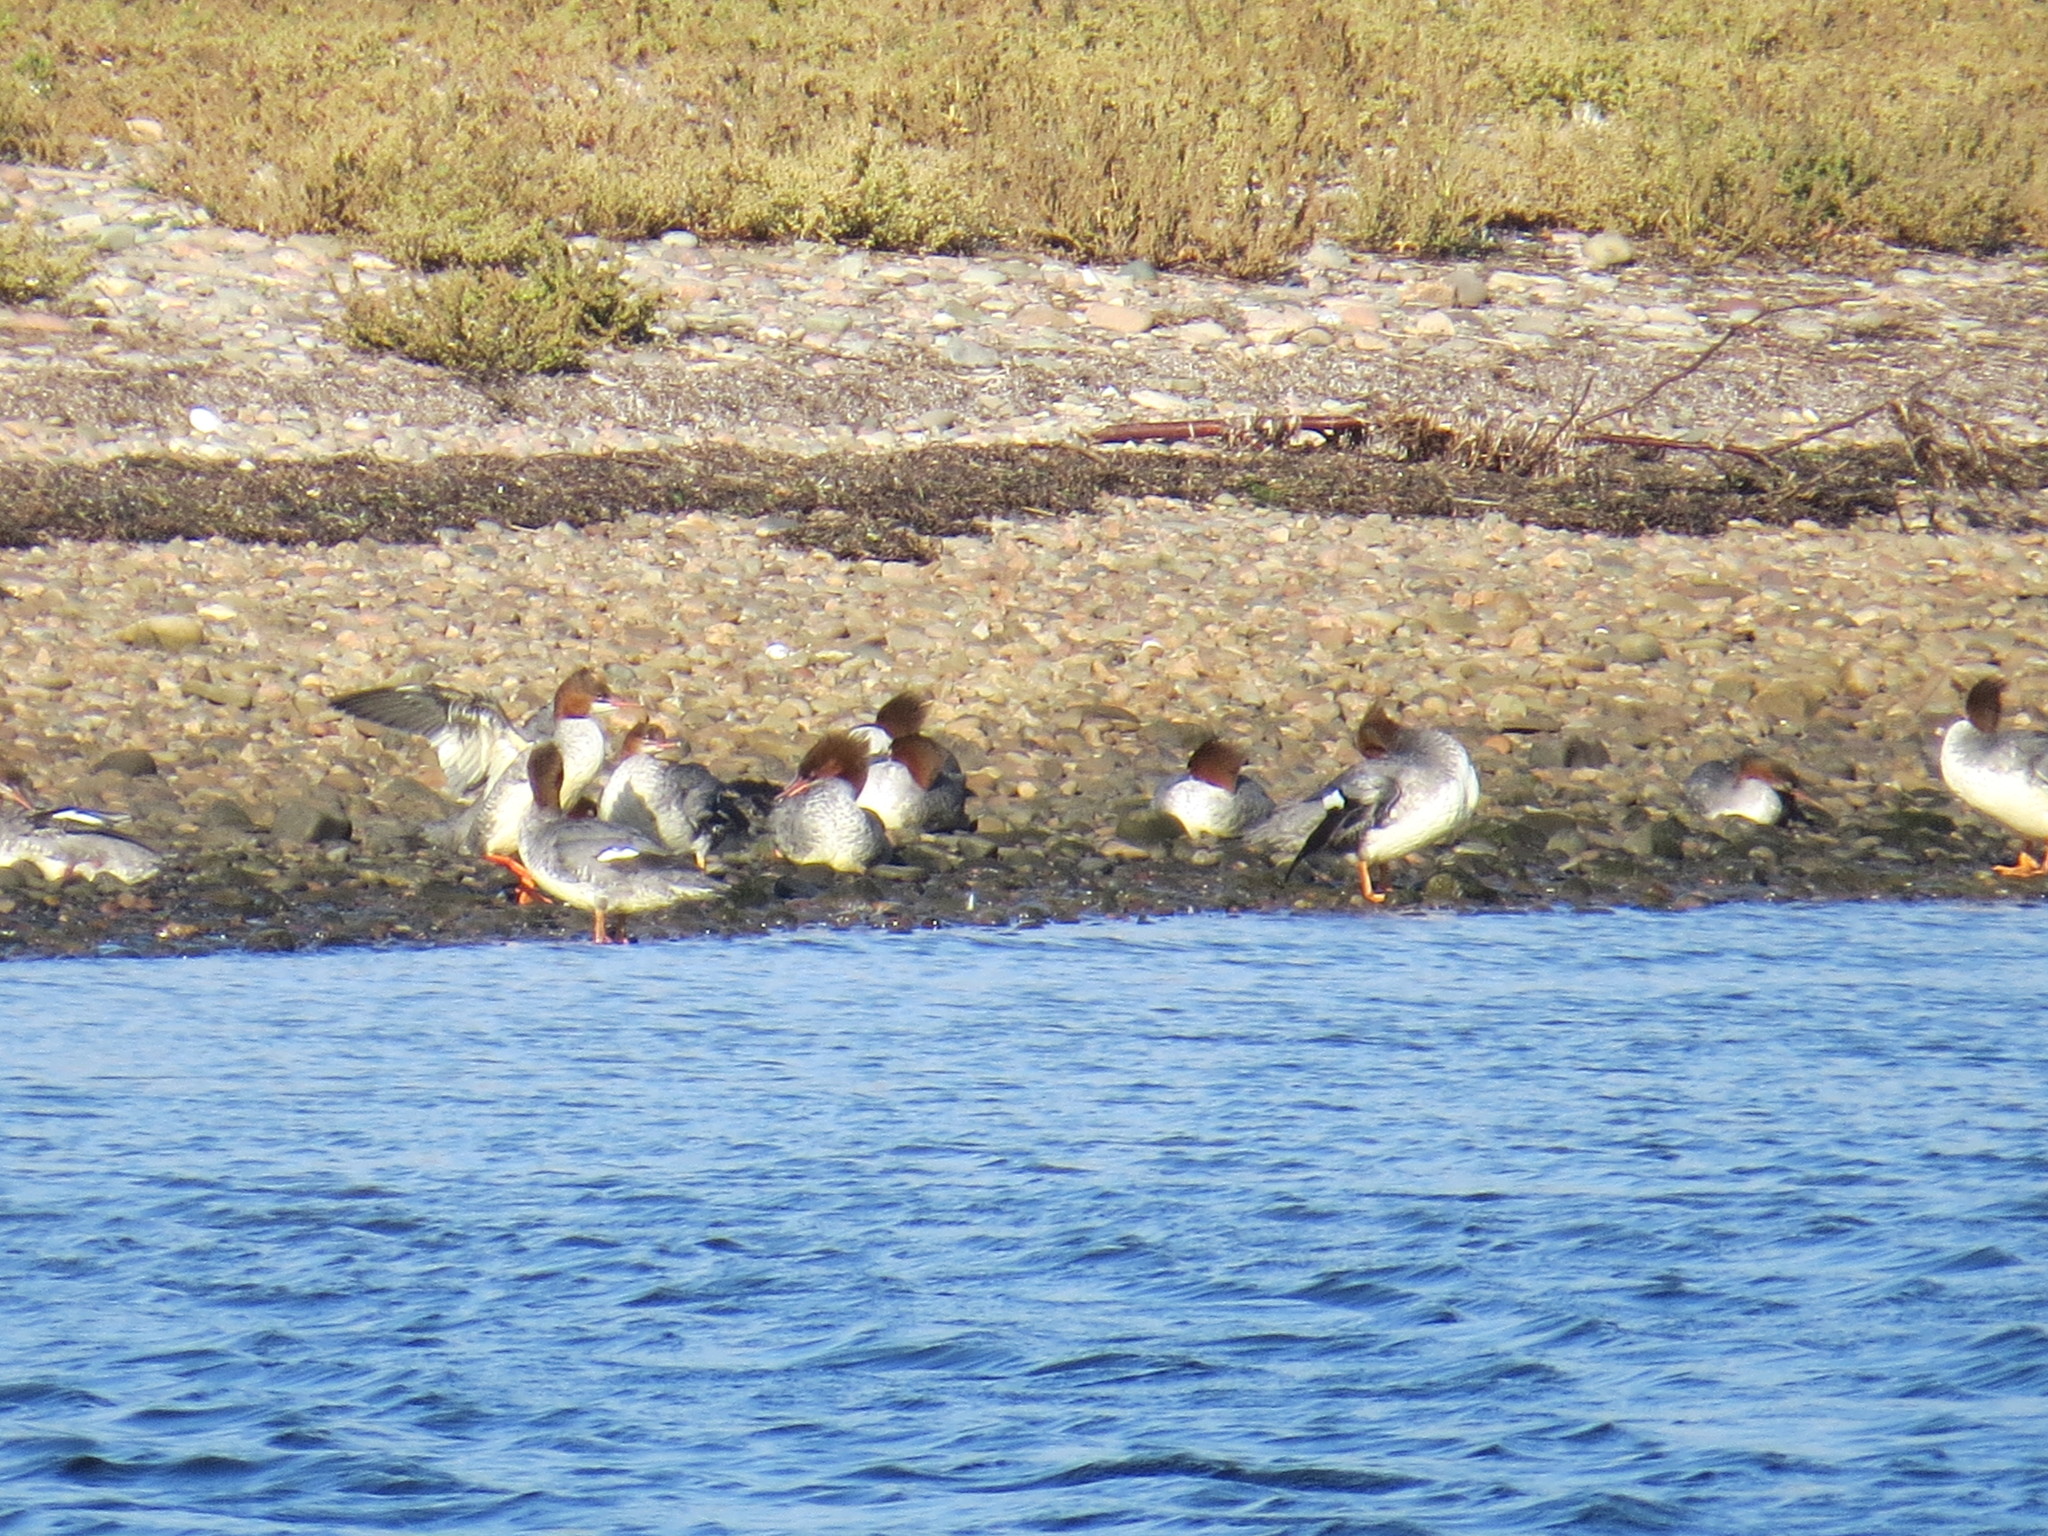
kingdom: Animalia
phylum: Chordata
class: Aves
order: Anseriformes
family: Anatidae
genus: Mergus
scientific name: Mergus merganser
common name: Common merganser
